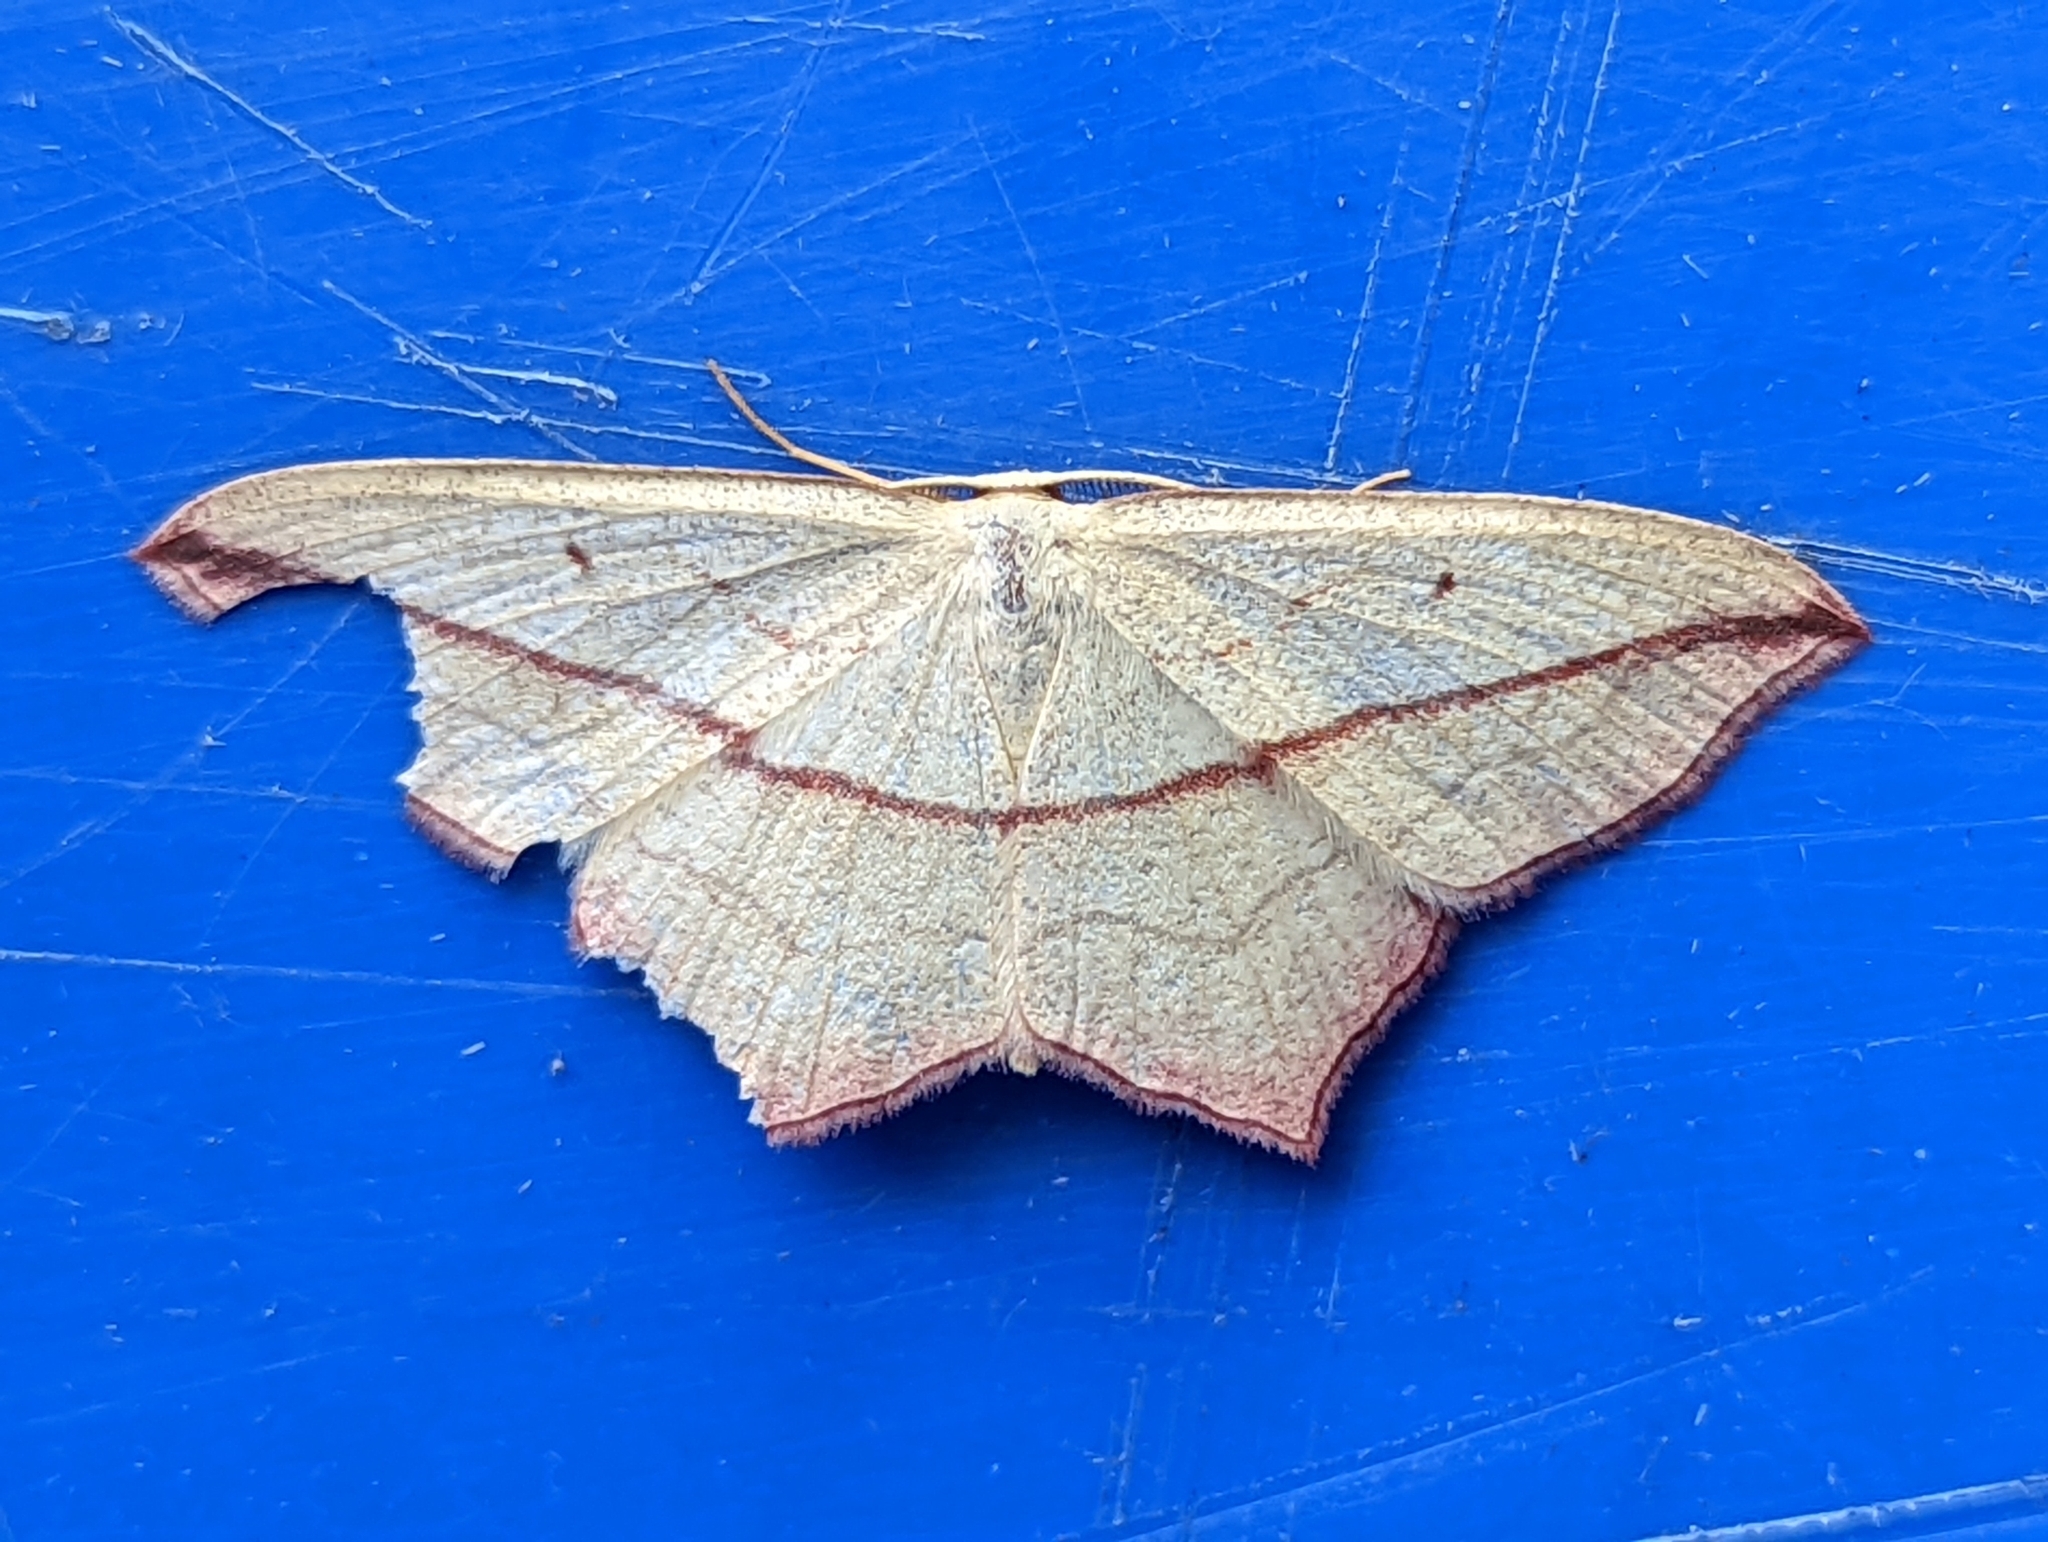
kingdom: Animalia
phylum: Arthropoda
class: Insecta
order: Lepidoptera
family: Geometridae
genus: Timandra
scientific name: Timandra comae
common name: Blood-vein
